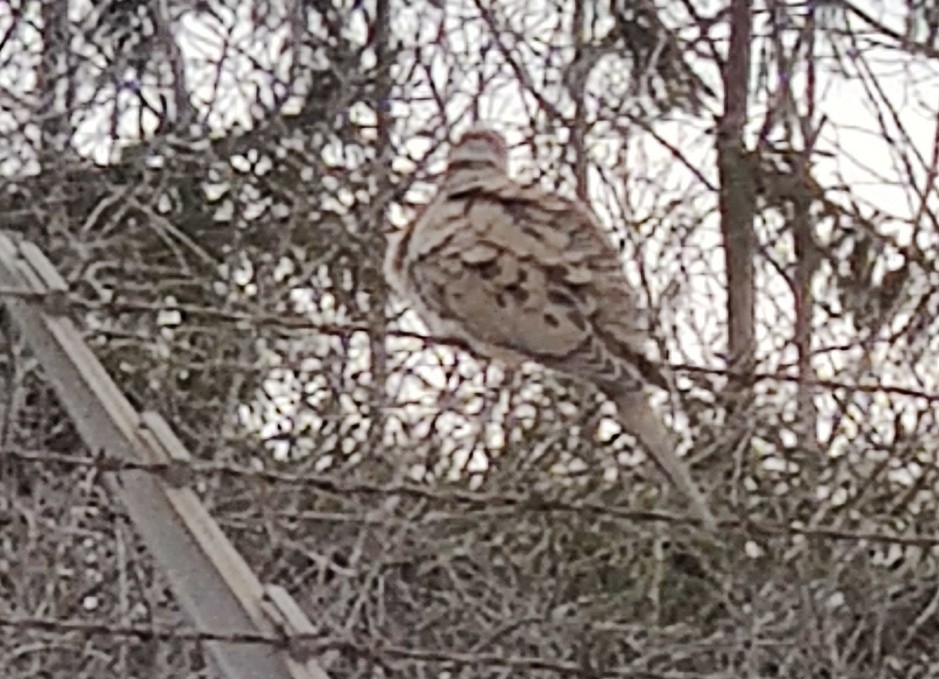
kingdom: Animalia
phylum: Chordata
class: Aves
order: Columbiformes
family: Columbidae
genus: Zenaida
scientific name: Zenaida macroura
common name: Mourning dove
